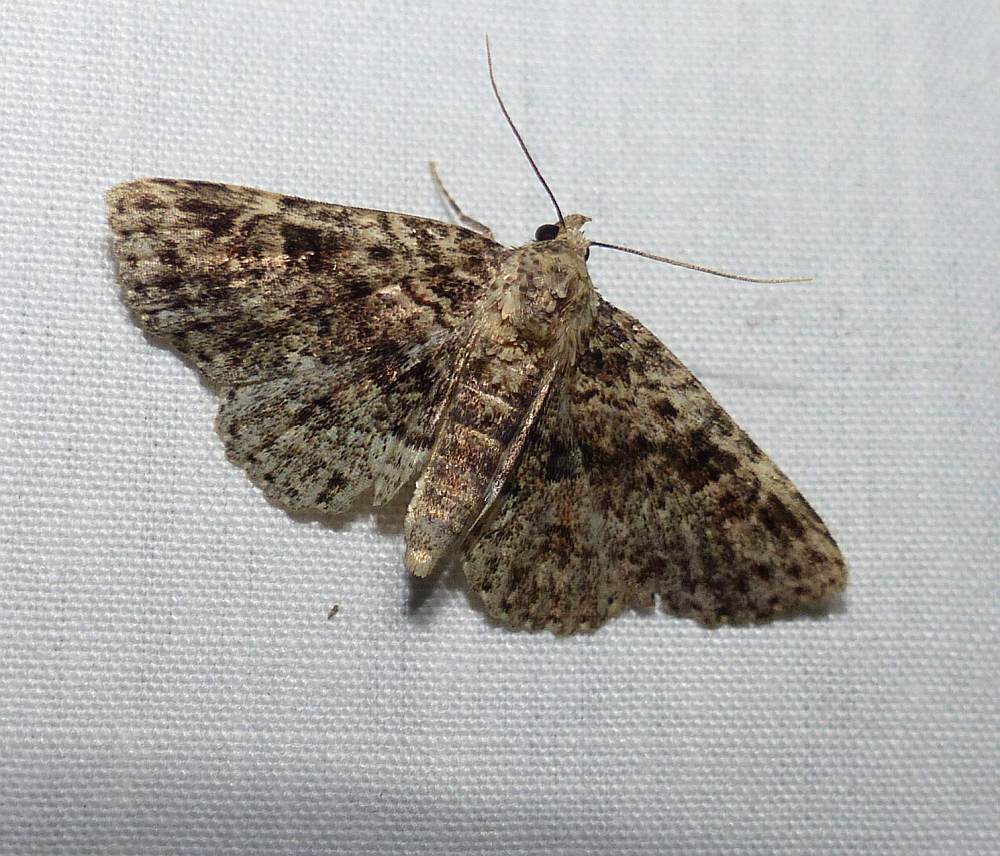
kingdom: Animalia
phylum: Arthropoda
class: Insecta
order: Lepidoptera
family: Erebidae
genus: Metalectra
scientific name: Metalectra discalis
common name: Common fungus moth
